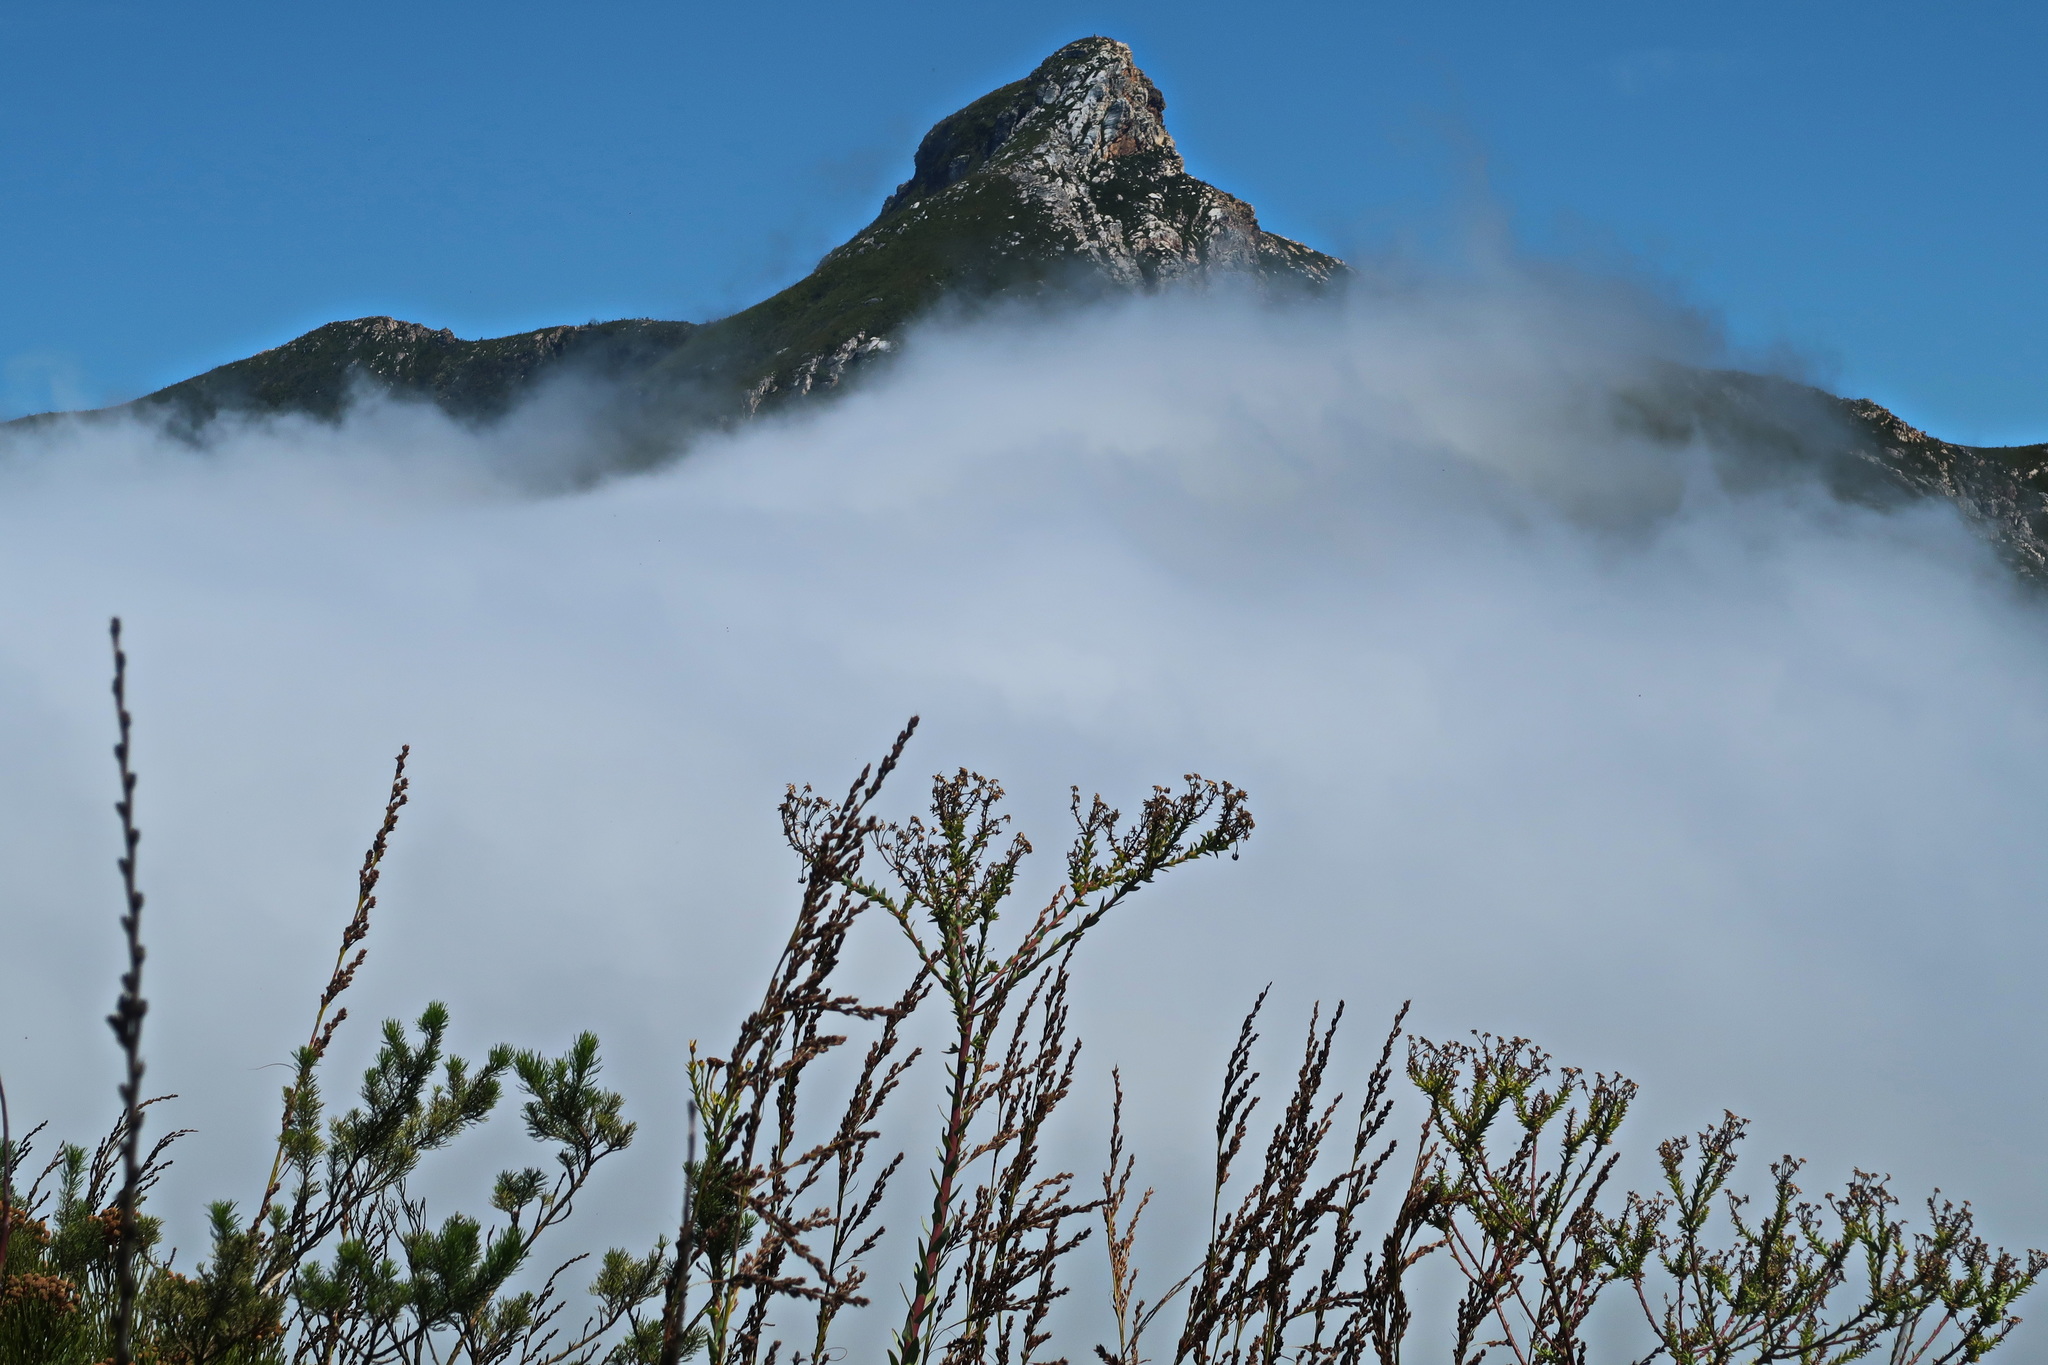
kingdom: Plantae
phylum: Tracheophyta
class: Magnoliopsida
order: Asterales
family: Asteraceae
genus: Osteospermum
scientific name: Osteospermum corymbosum
